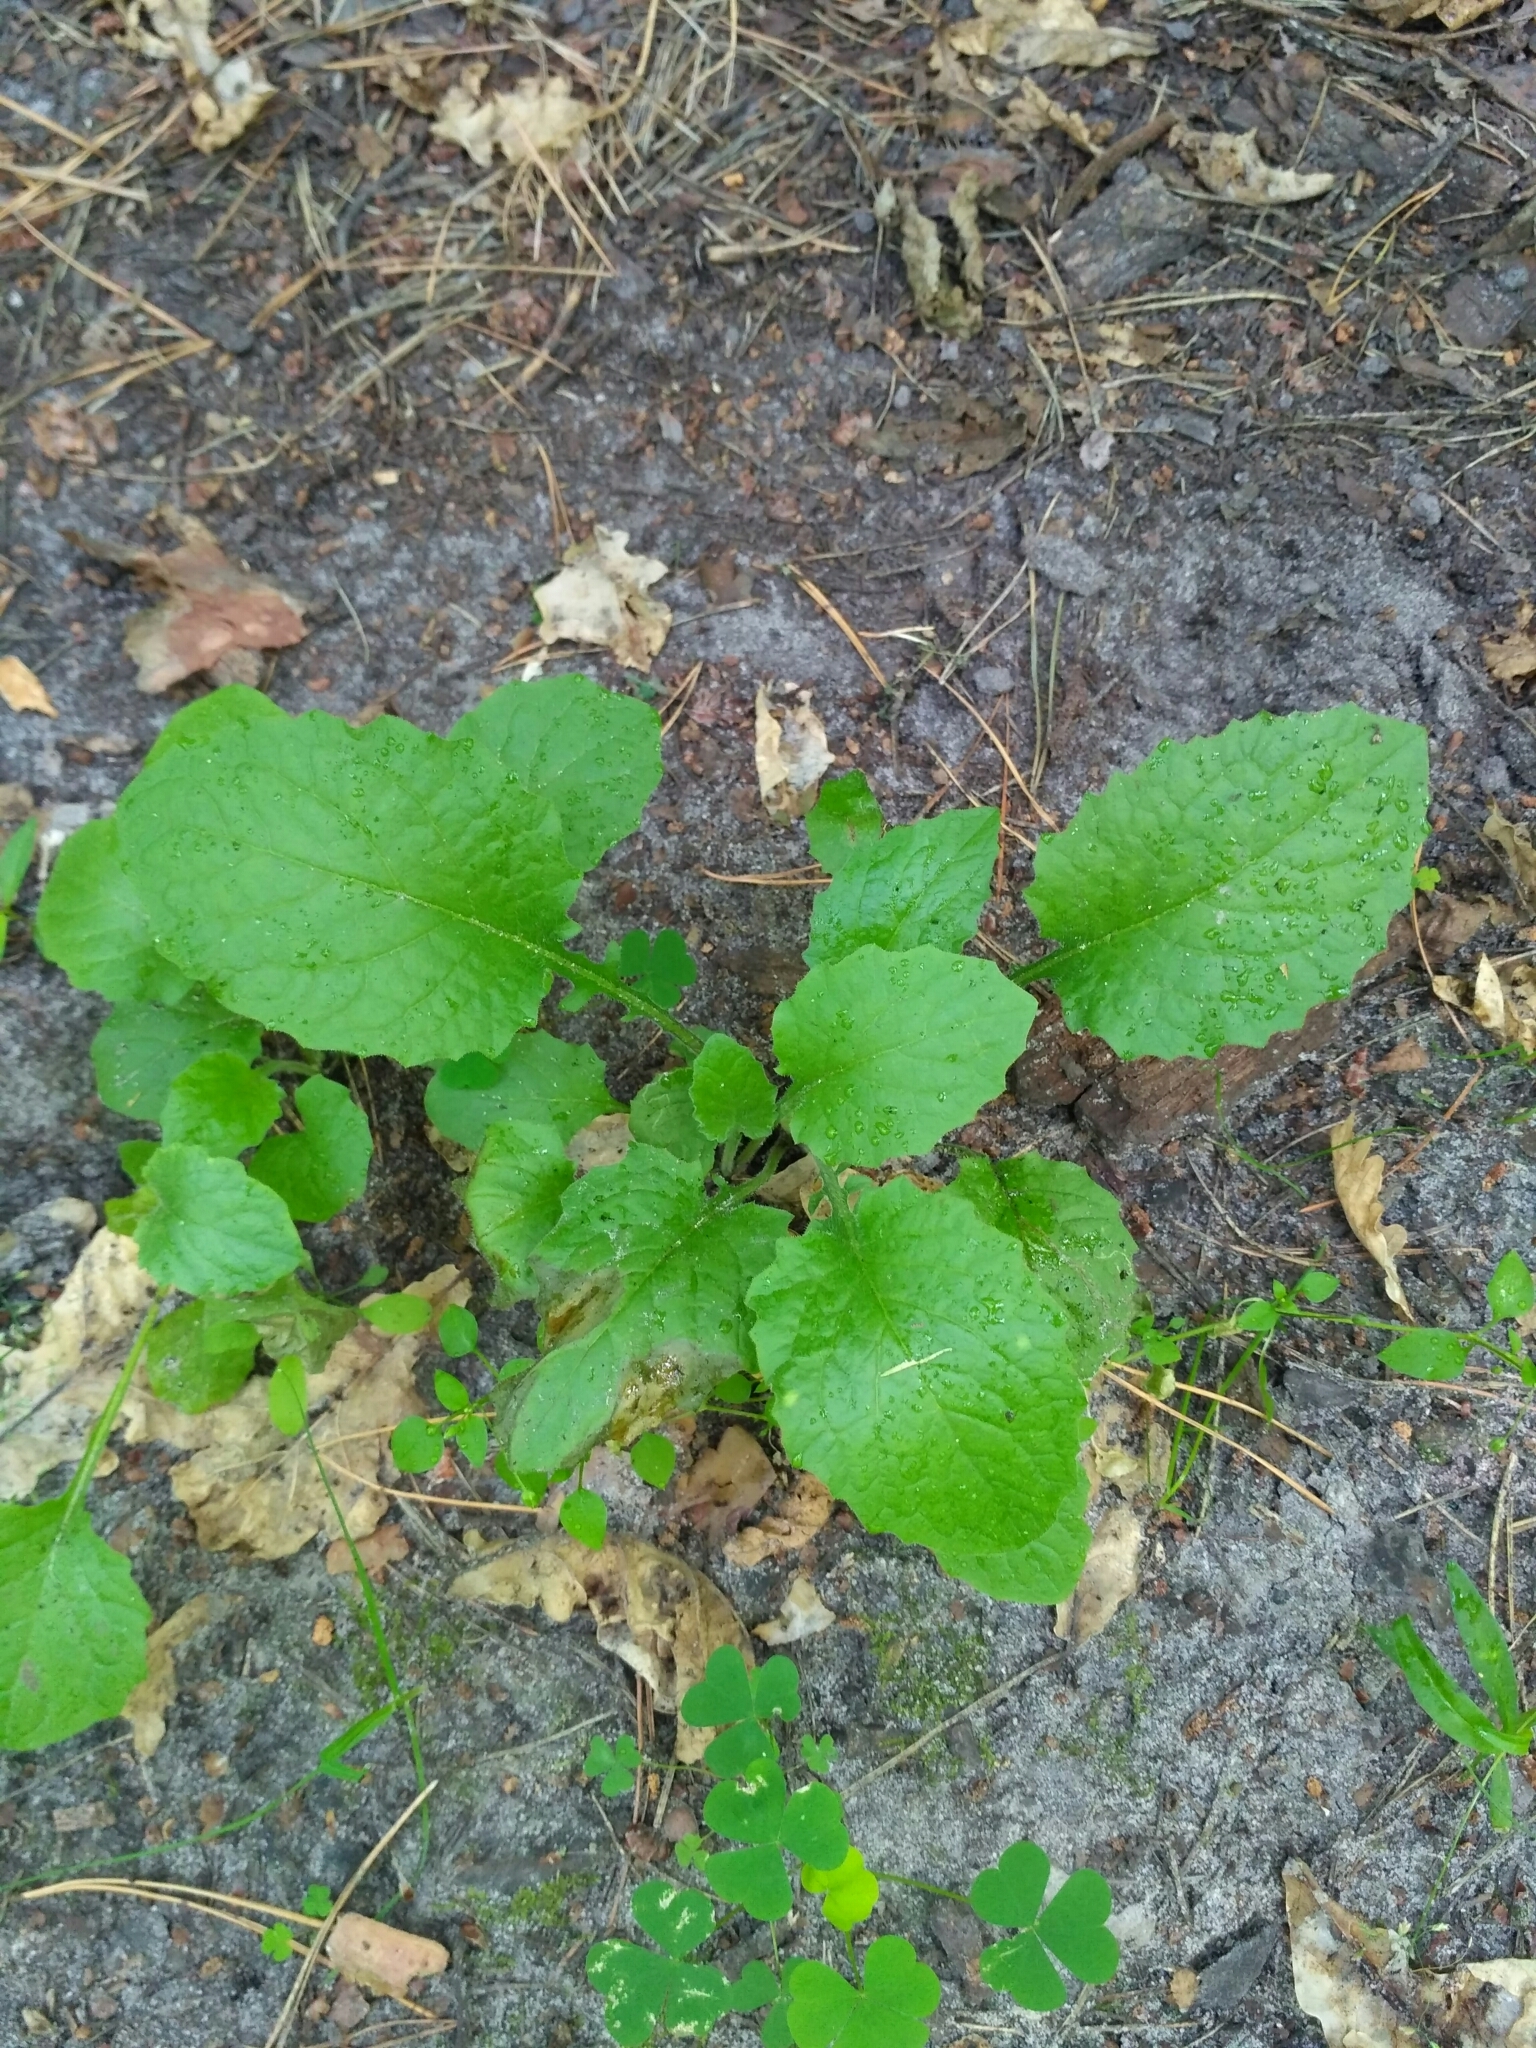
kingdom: Plantae
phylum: Tracheophyta
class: Magnoliopsida
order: Asterales
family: Asteraceae
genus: Lapsana
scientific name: Lapsana communis
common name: Nipplewort
